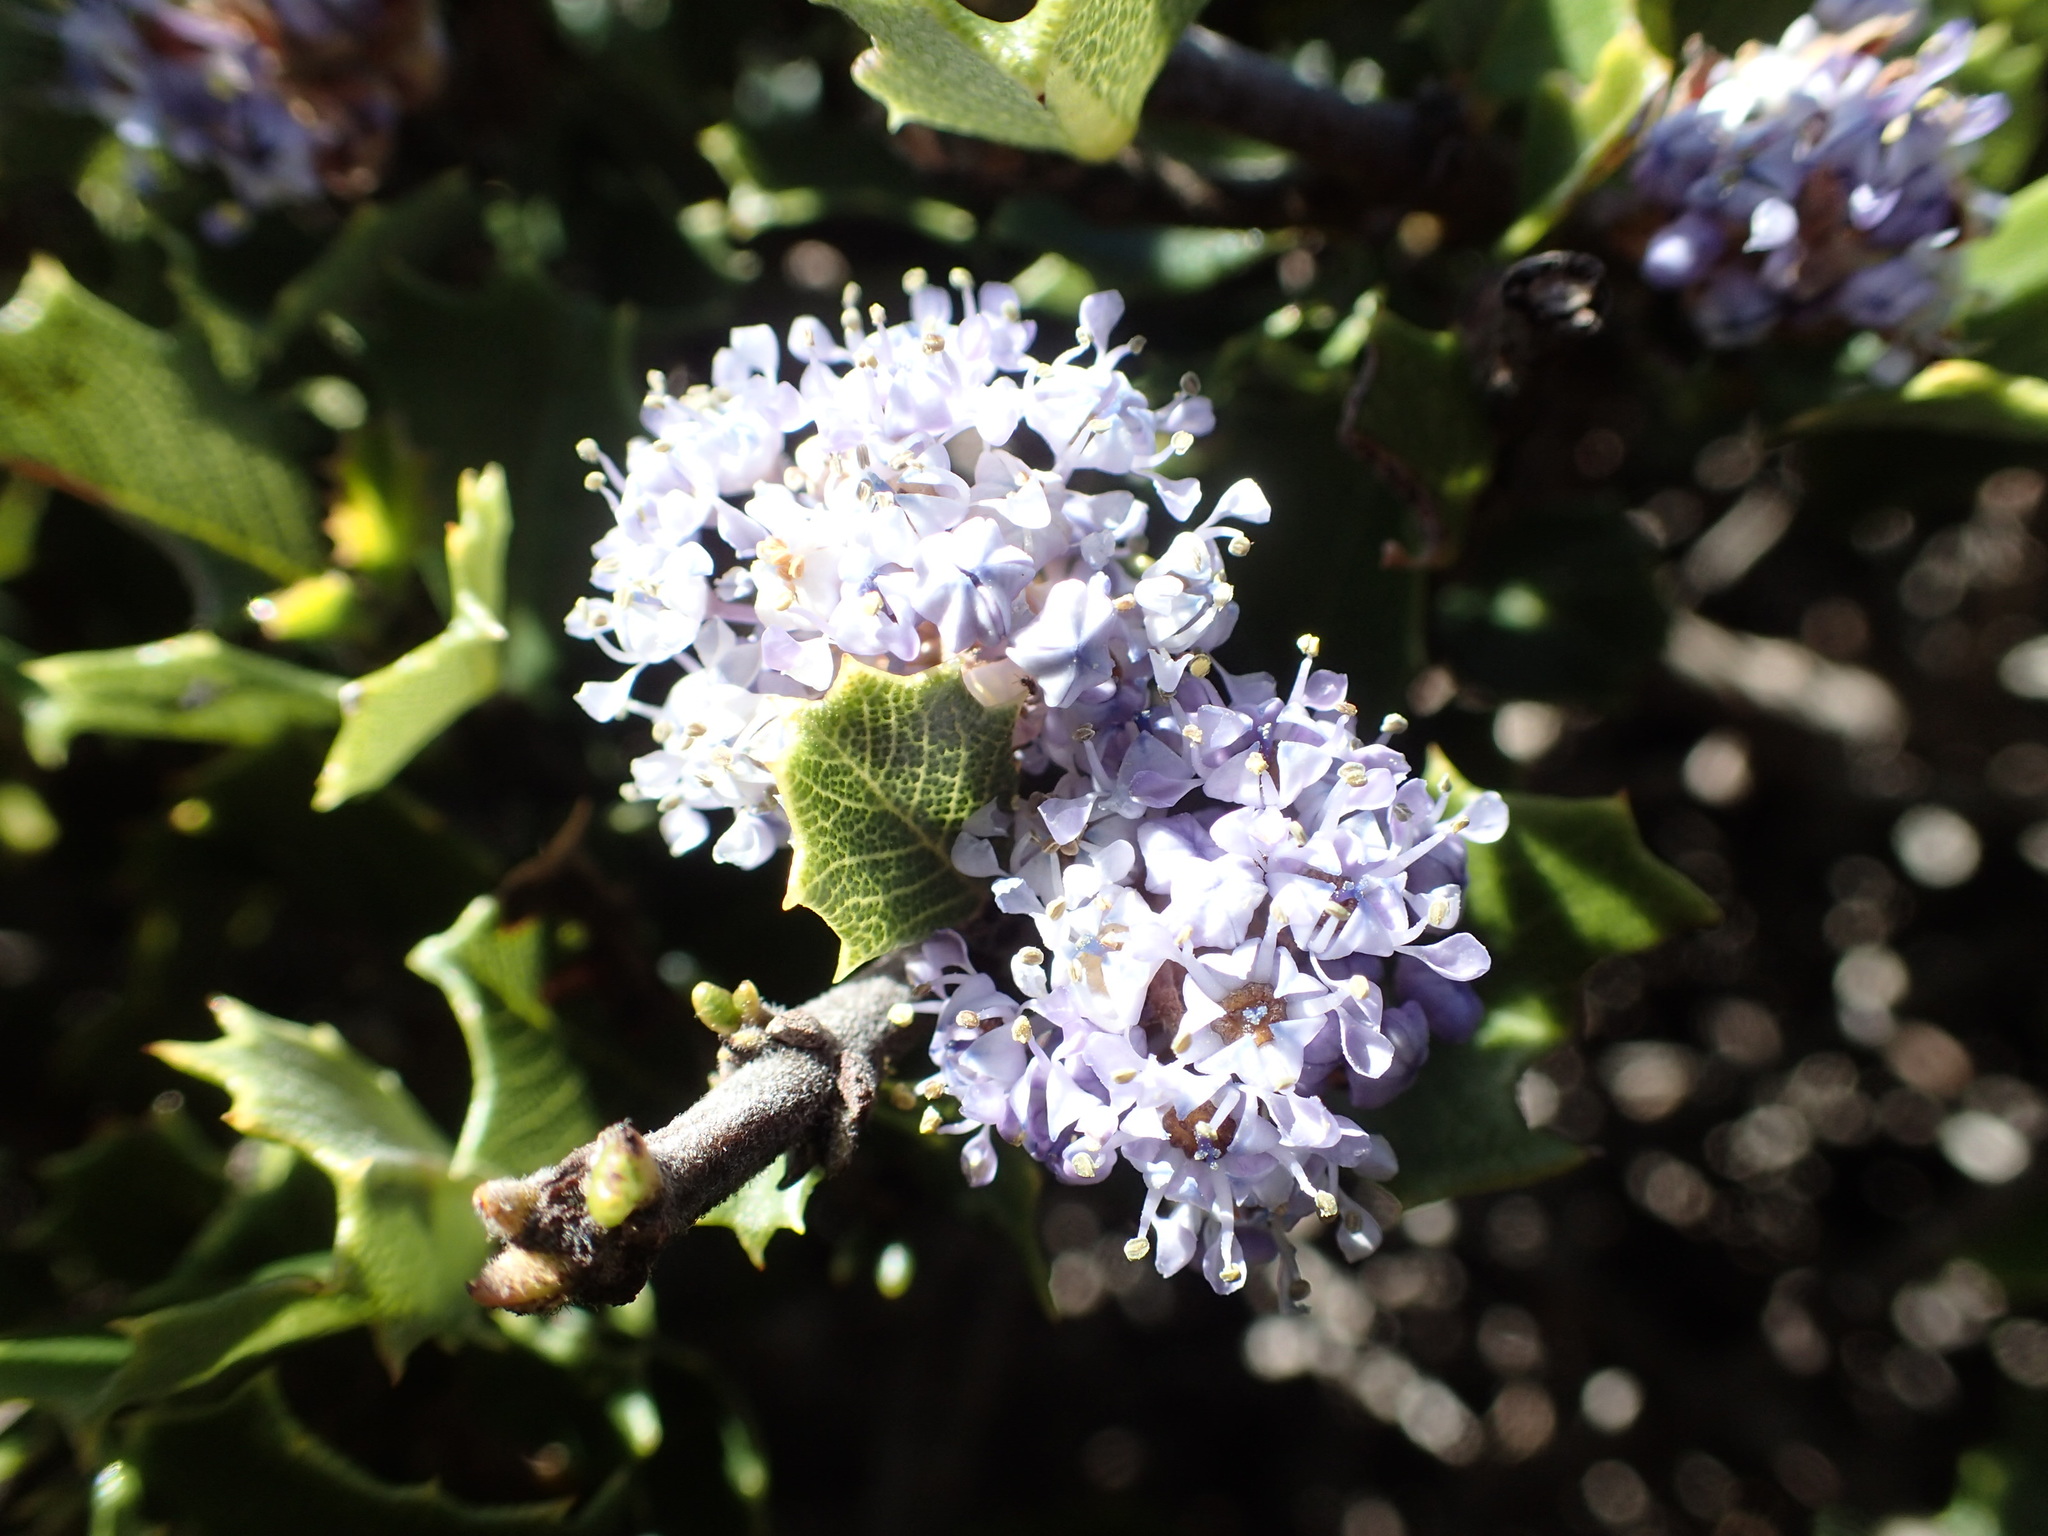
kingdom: Plantae
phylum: Tracheophyta
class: Magnoliopsida
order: Rosales
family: Rhamnaceae
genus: Ceanothus
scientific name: Ceanothus decornutus
